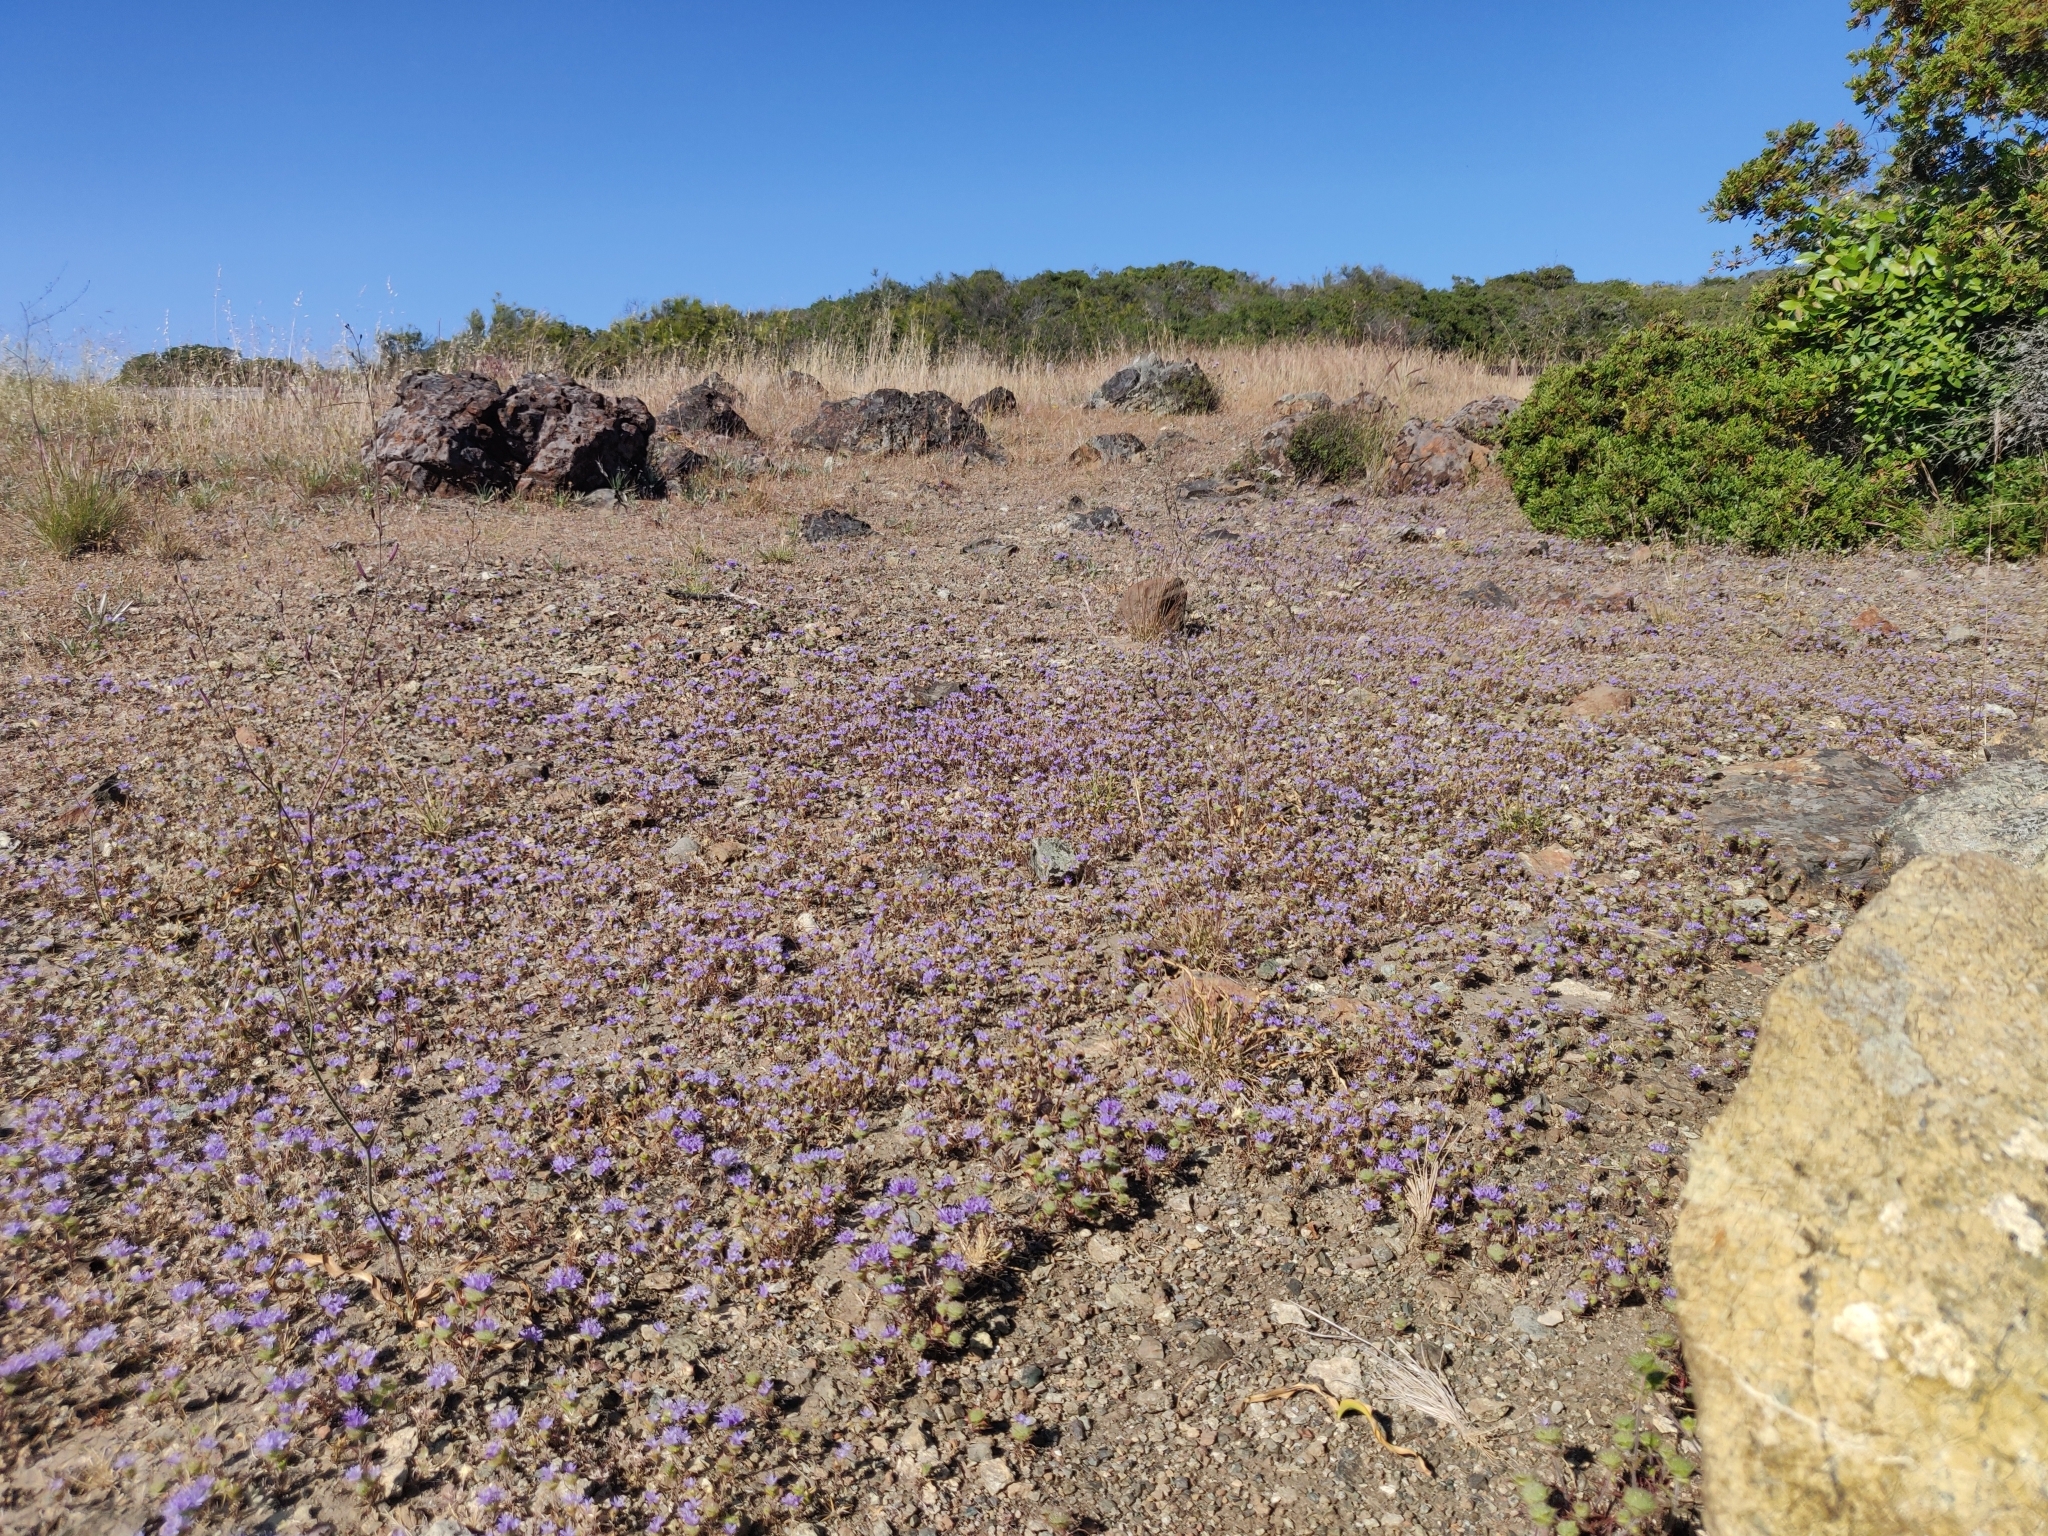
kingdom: Plantae
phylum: Tracheophyta
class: Magnoliopsida
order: Ericales
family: Polemoniaceae
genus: Navarretia
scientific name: Navarretia heterodoxa
